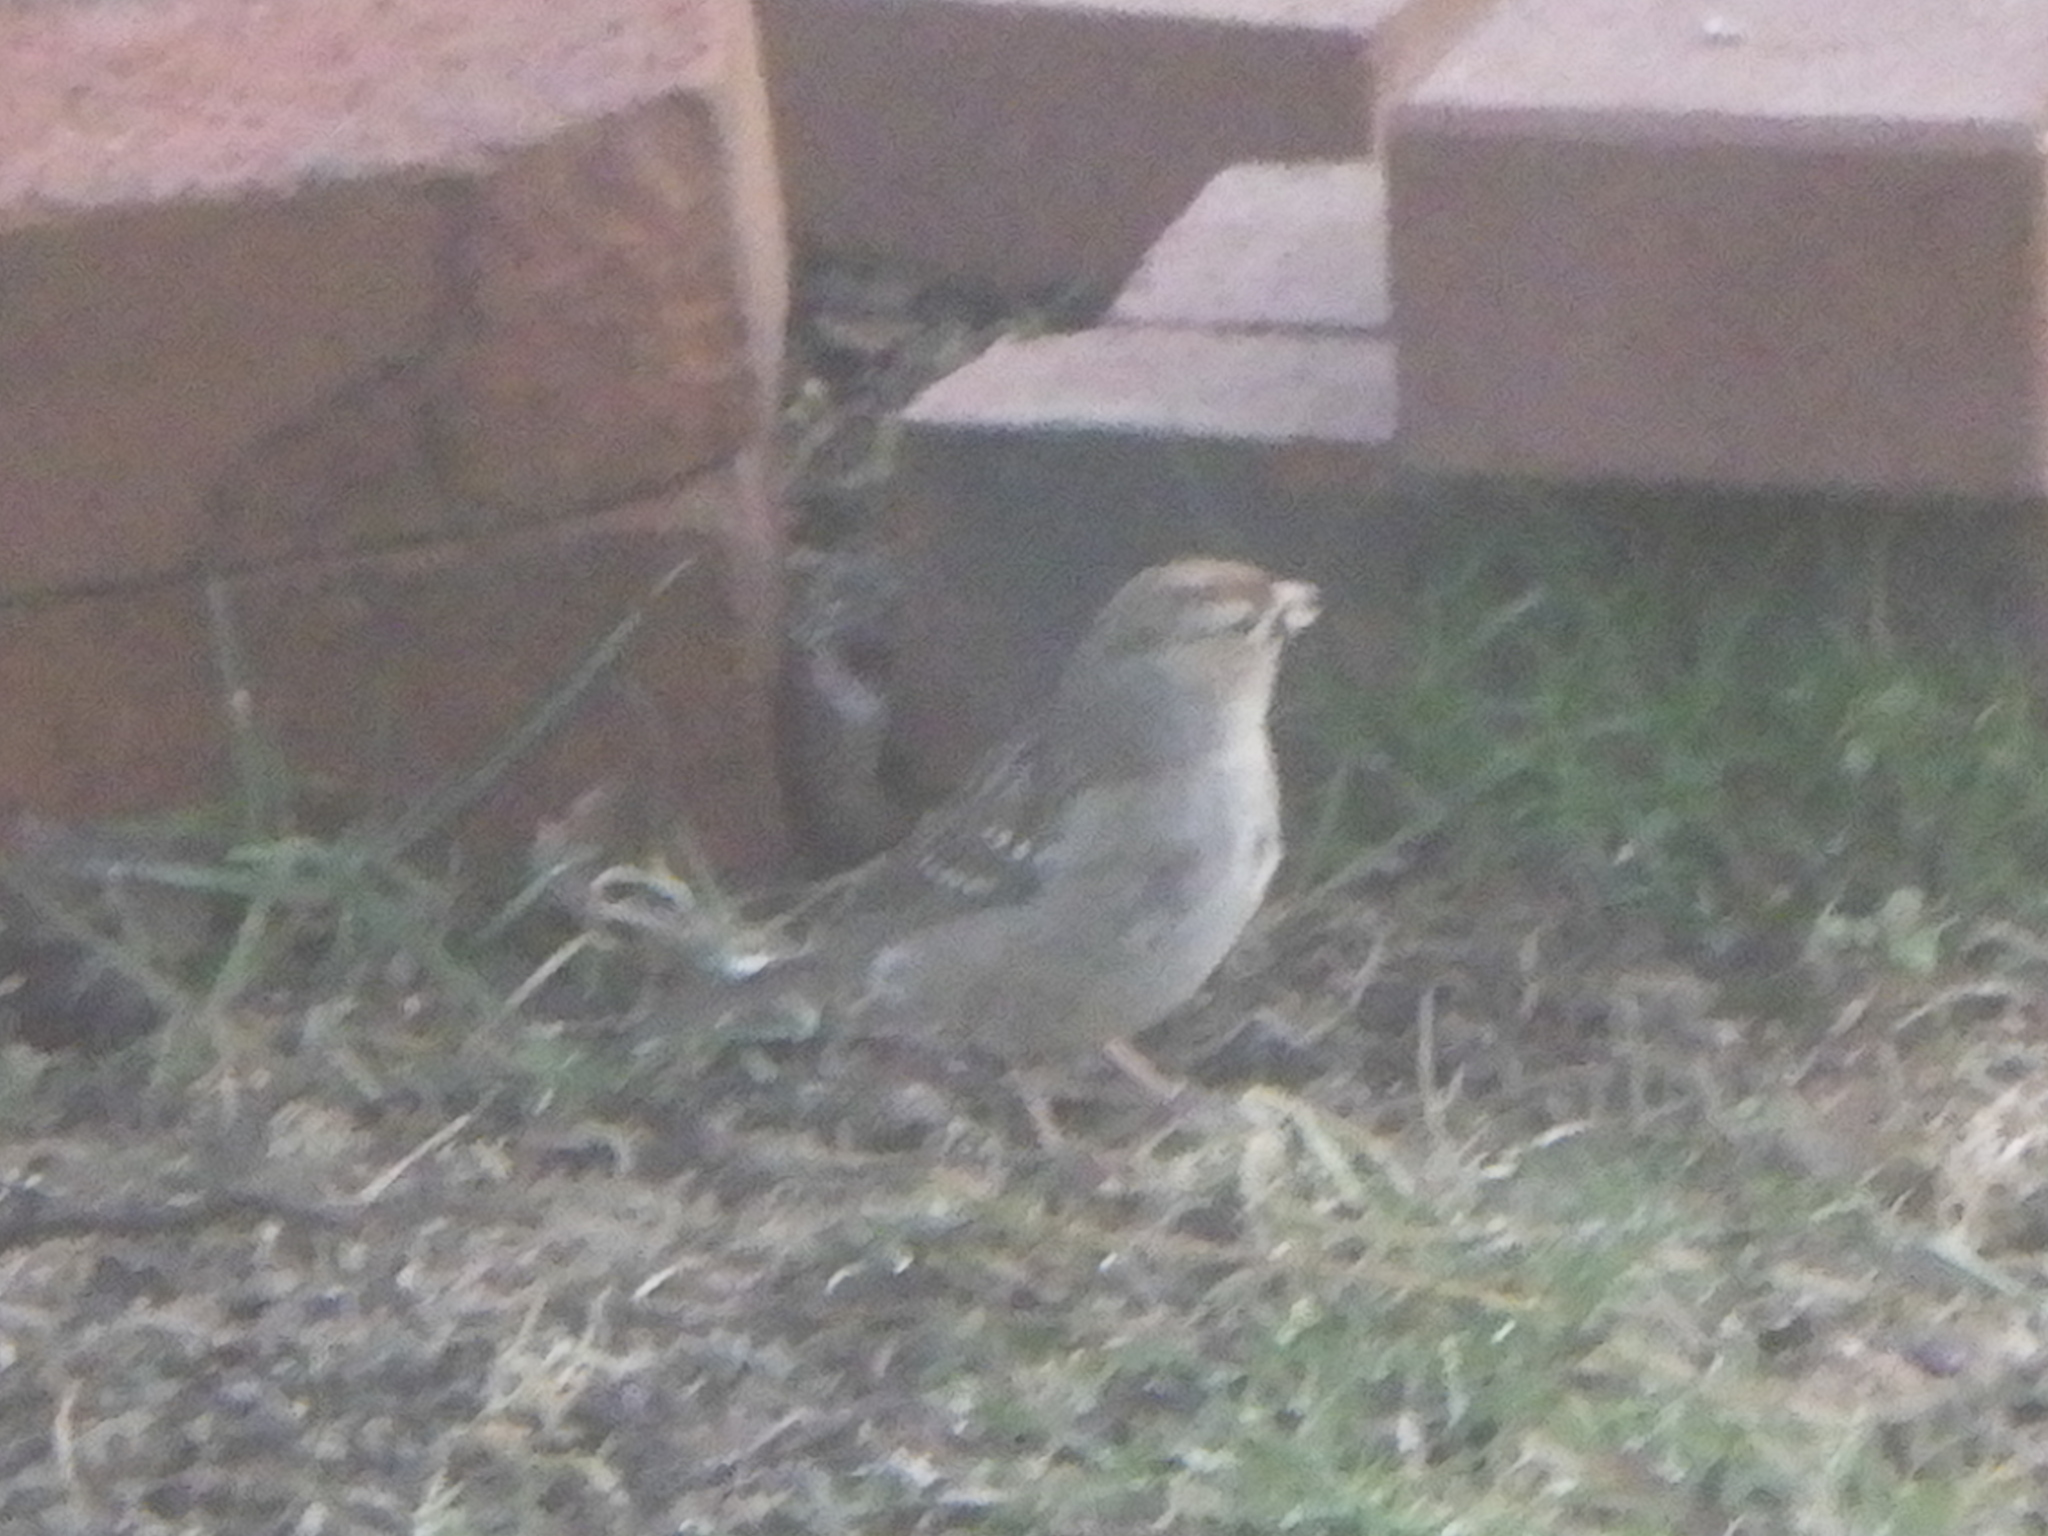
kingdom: Animalia
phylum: Chordata
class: Aves
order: Passeriformes
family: Passerellidae
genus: Zonotrichia
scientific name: Zonotrichia leucophrys
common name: White-crowned sparrow
